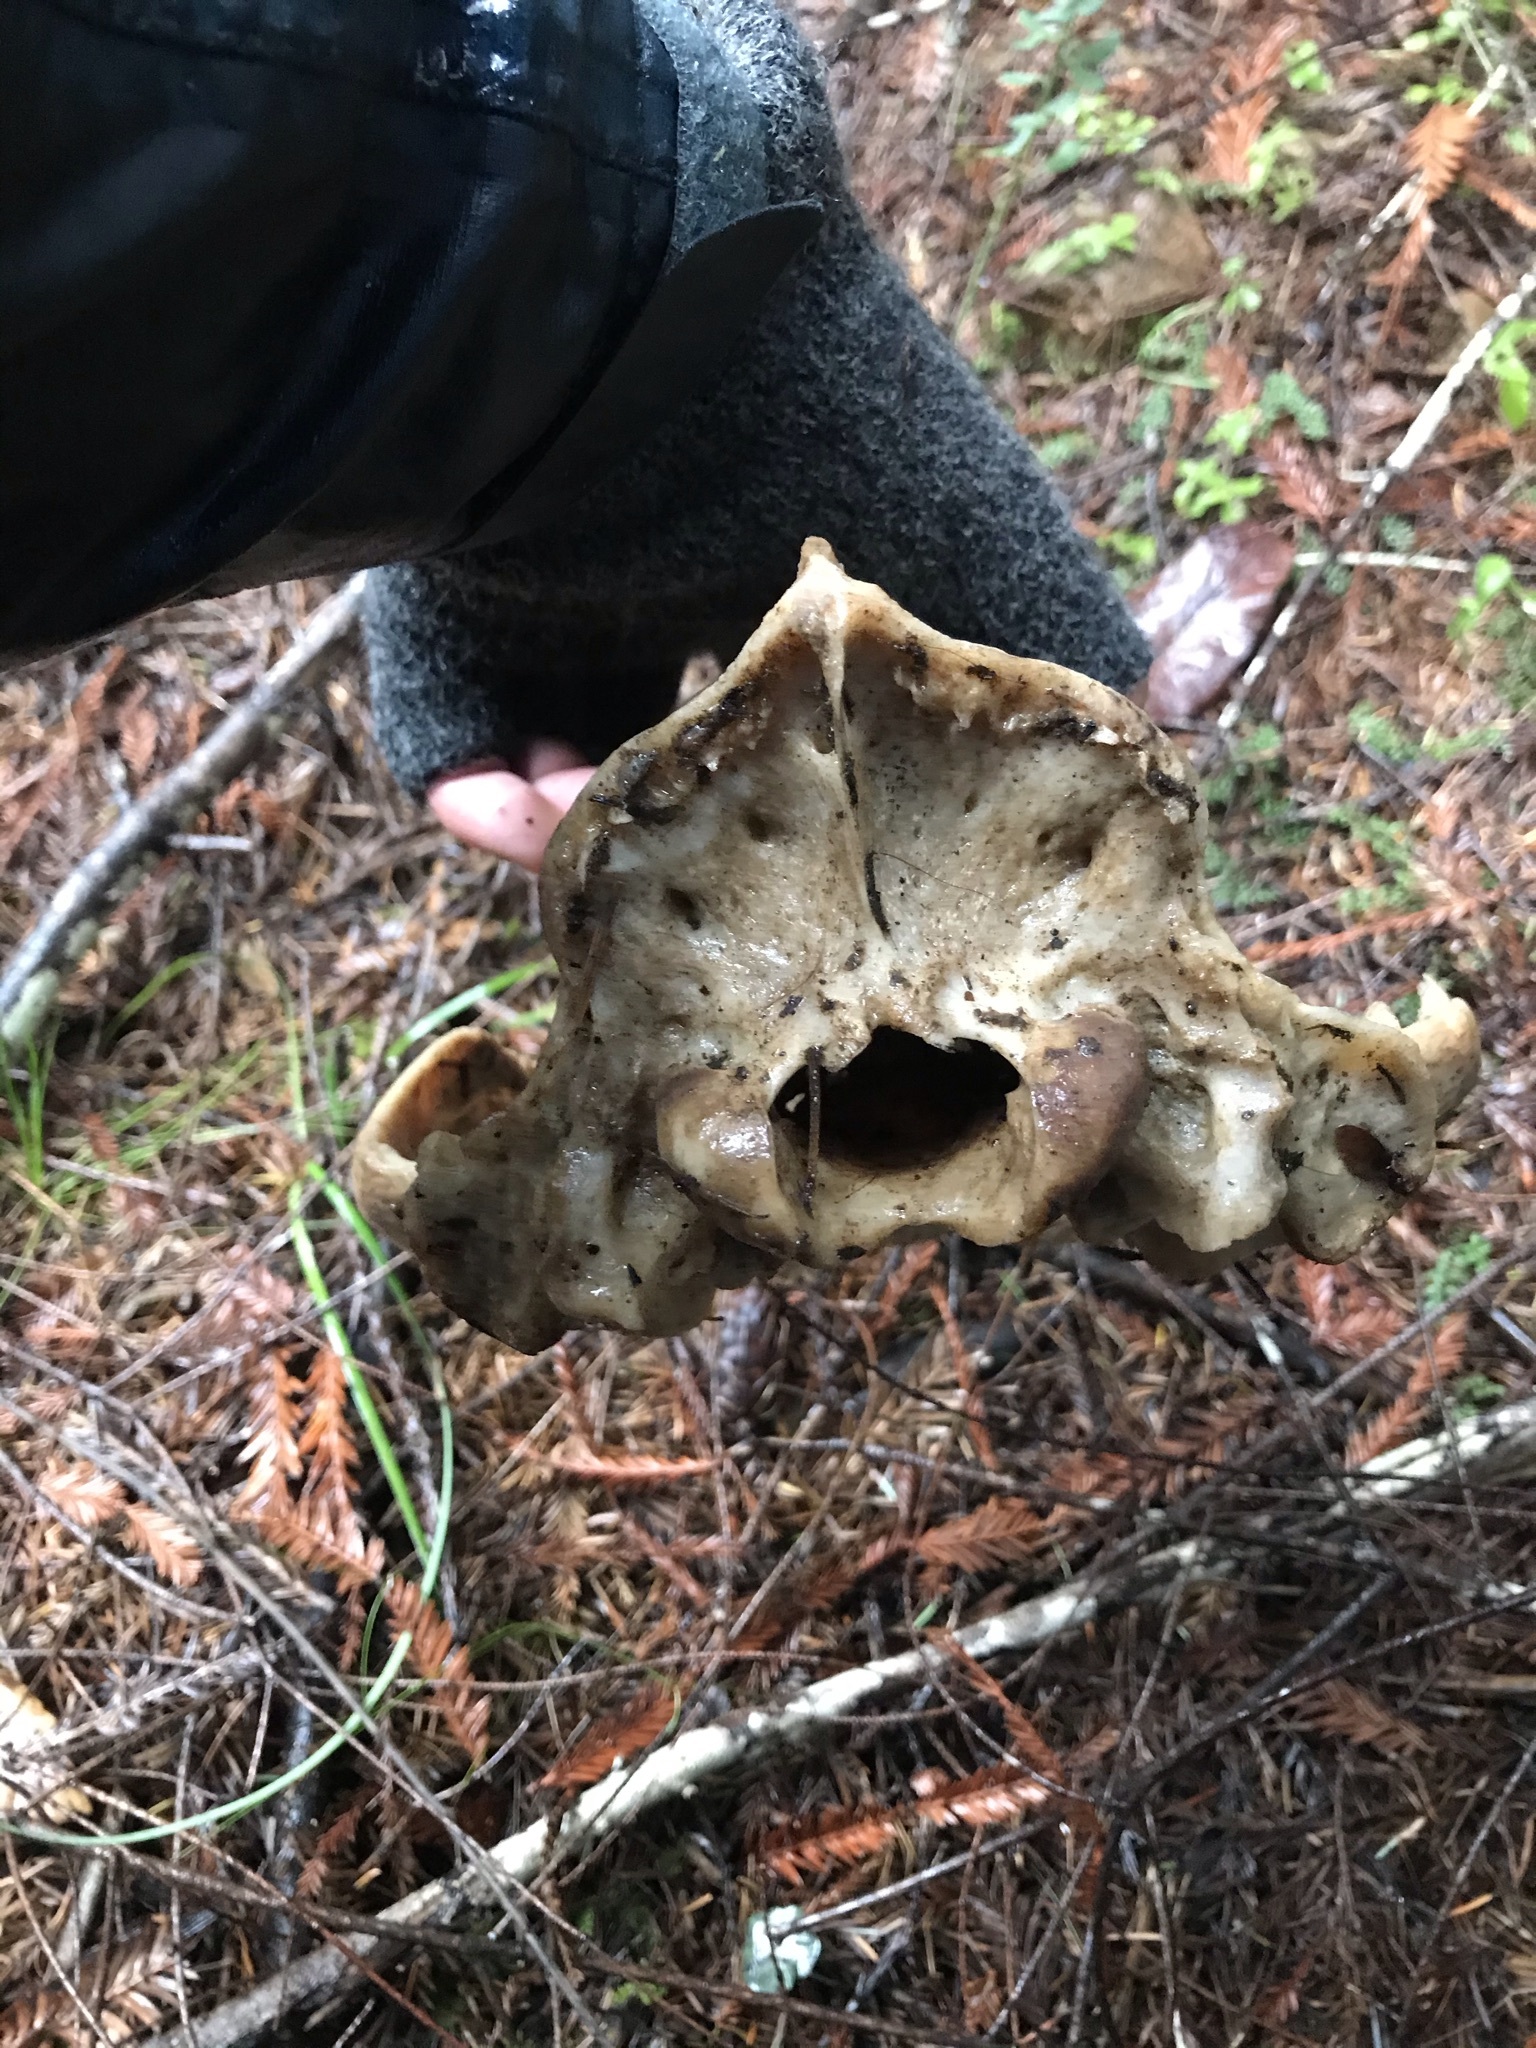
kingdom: Animalia
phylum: Chordata
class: Mammalia
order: Carnivora
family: Ursidae
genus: Ursus
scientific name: Ursus americanus
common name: American black bear
